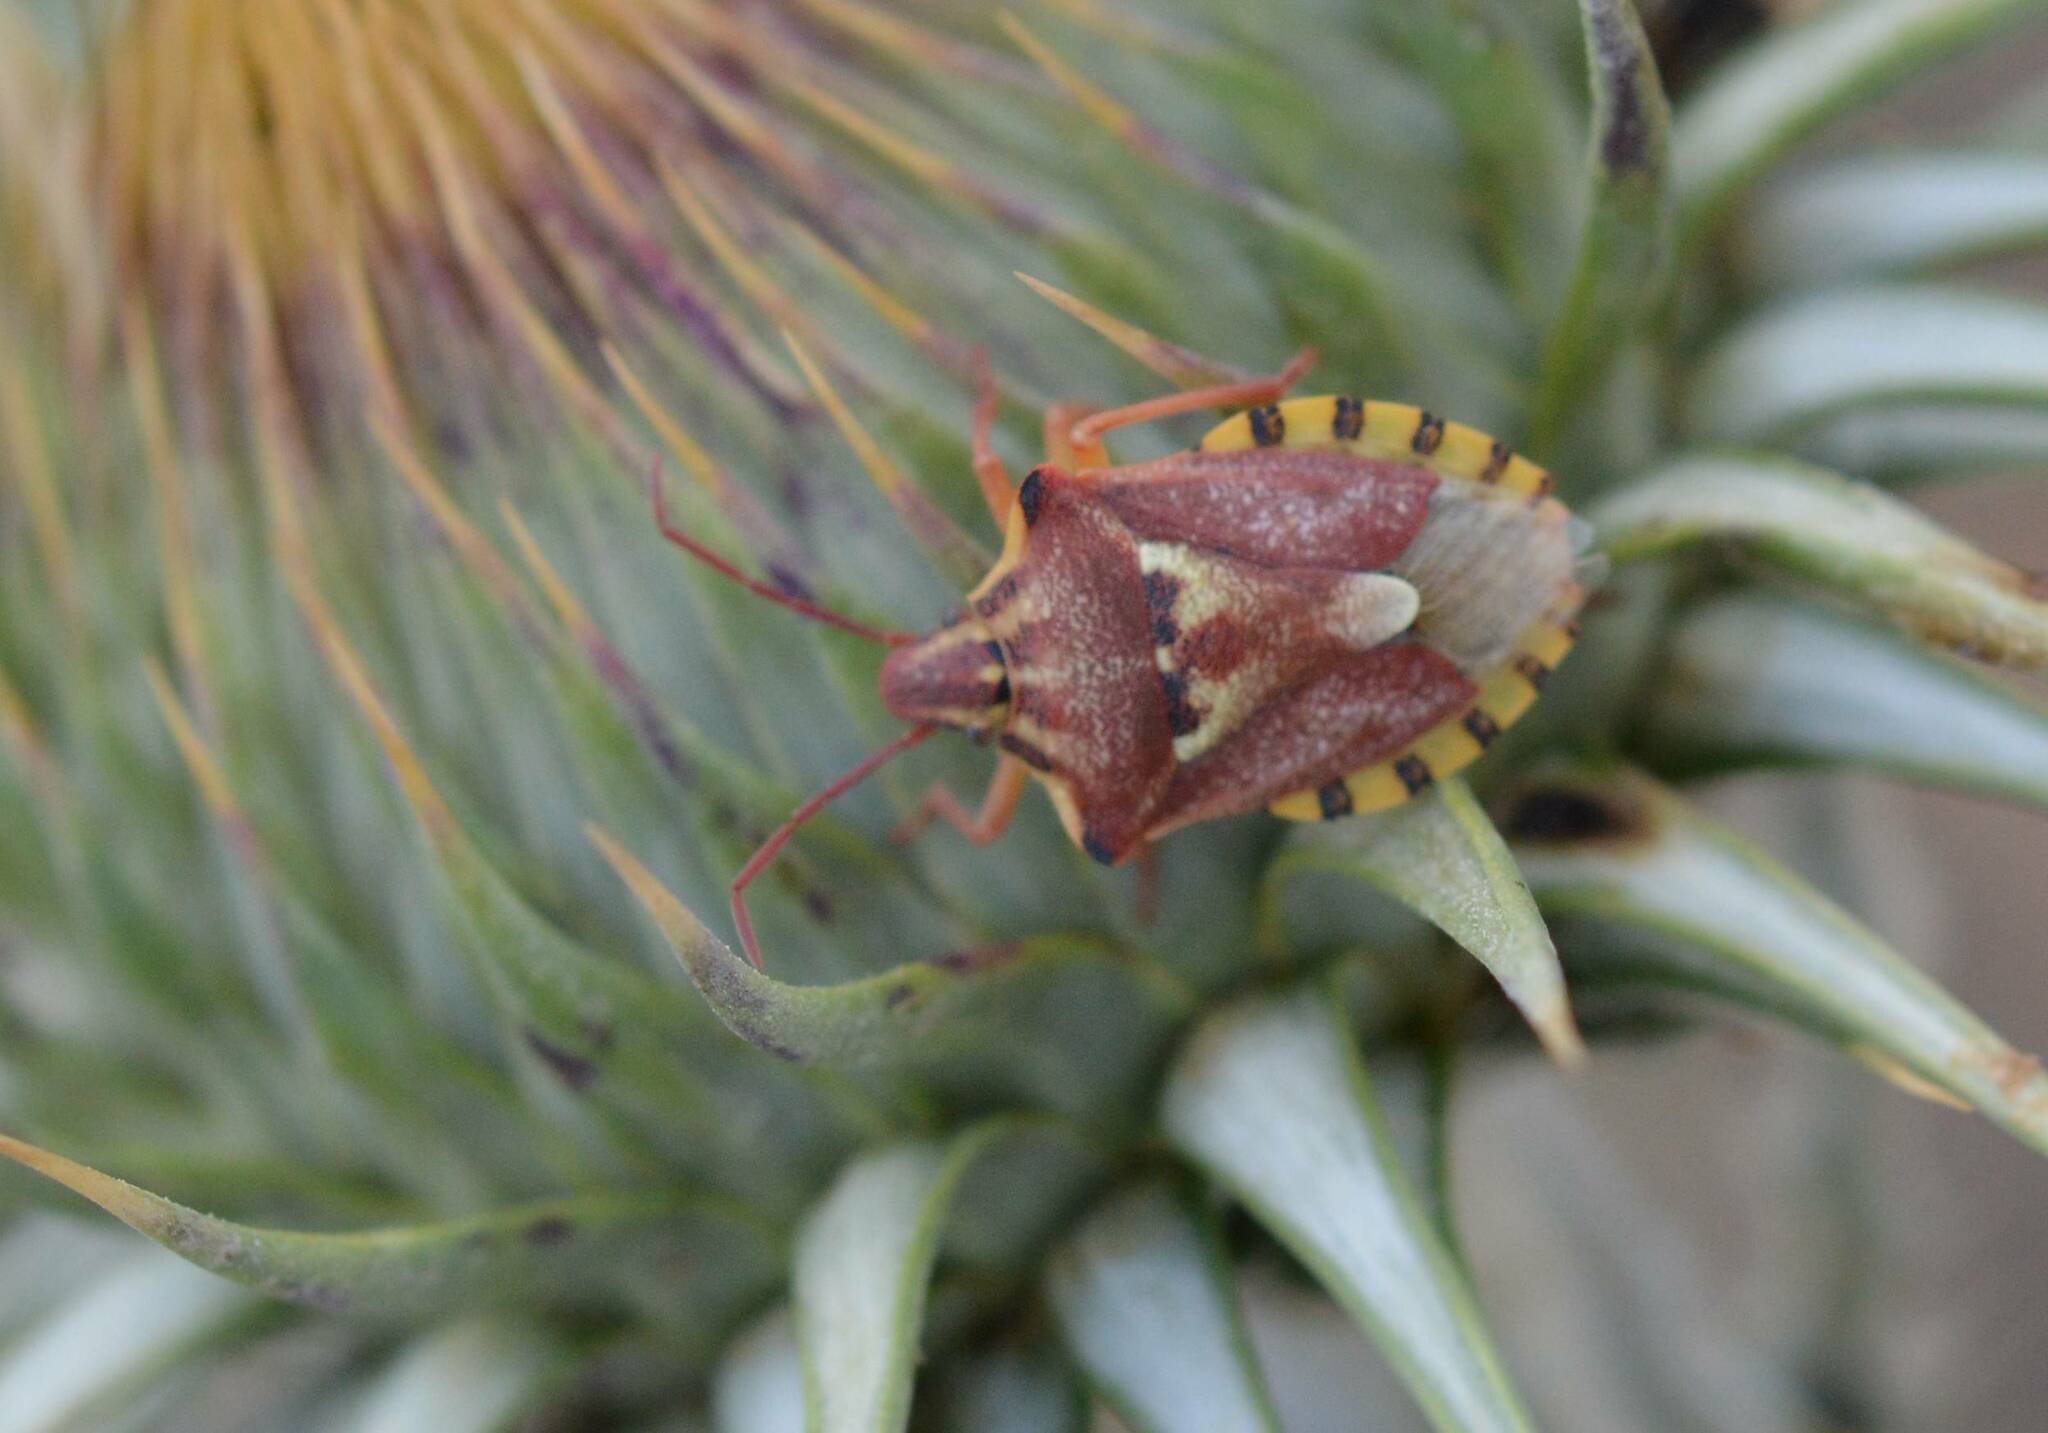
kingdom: Animalia
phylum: Arthropoda
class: Insecta
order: Hemiptera
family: Miridae
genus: Orthops
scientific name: Orthops kalmii
